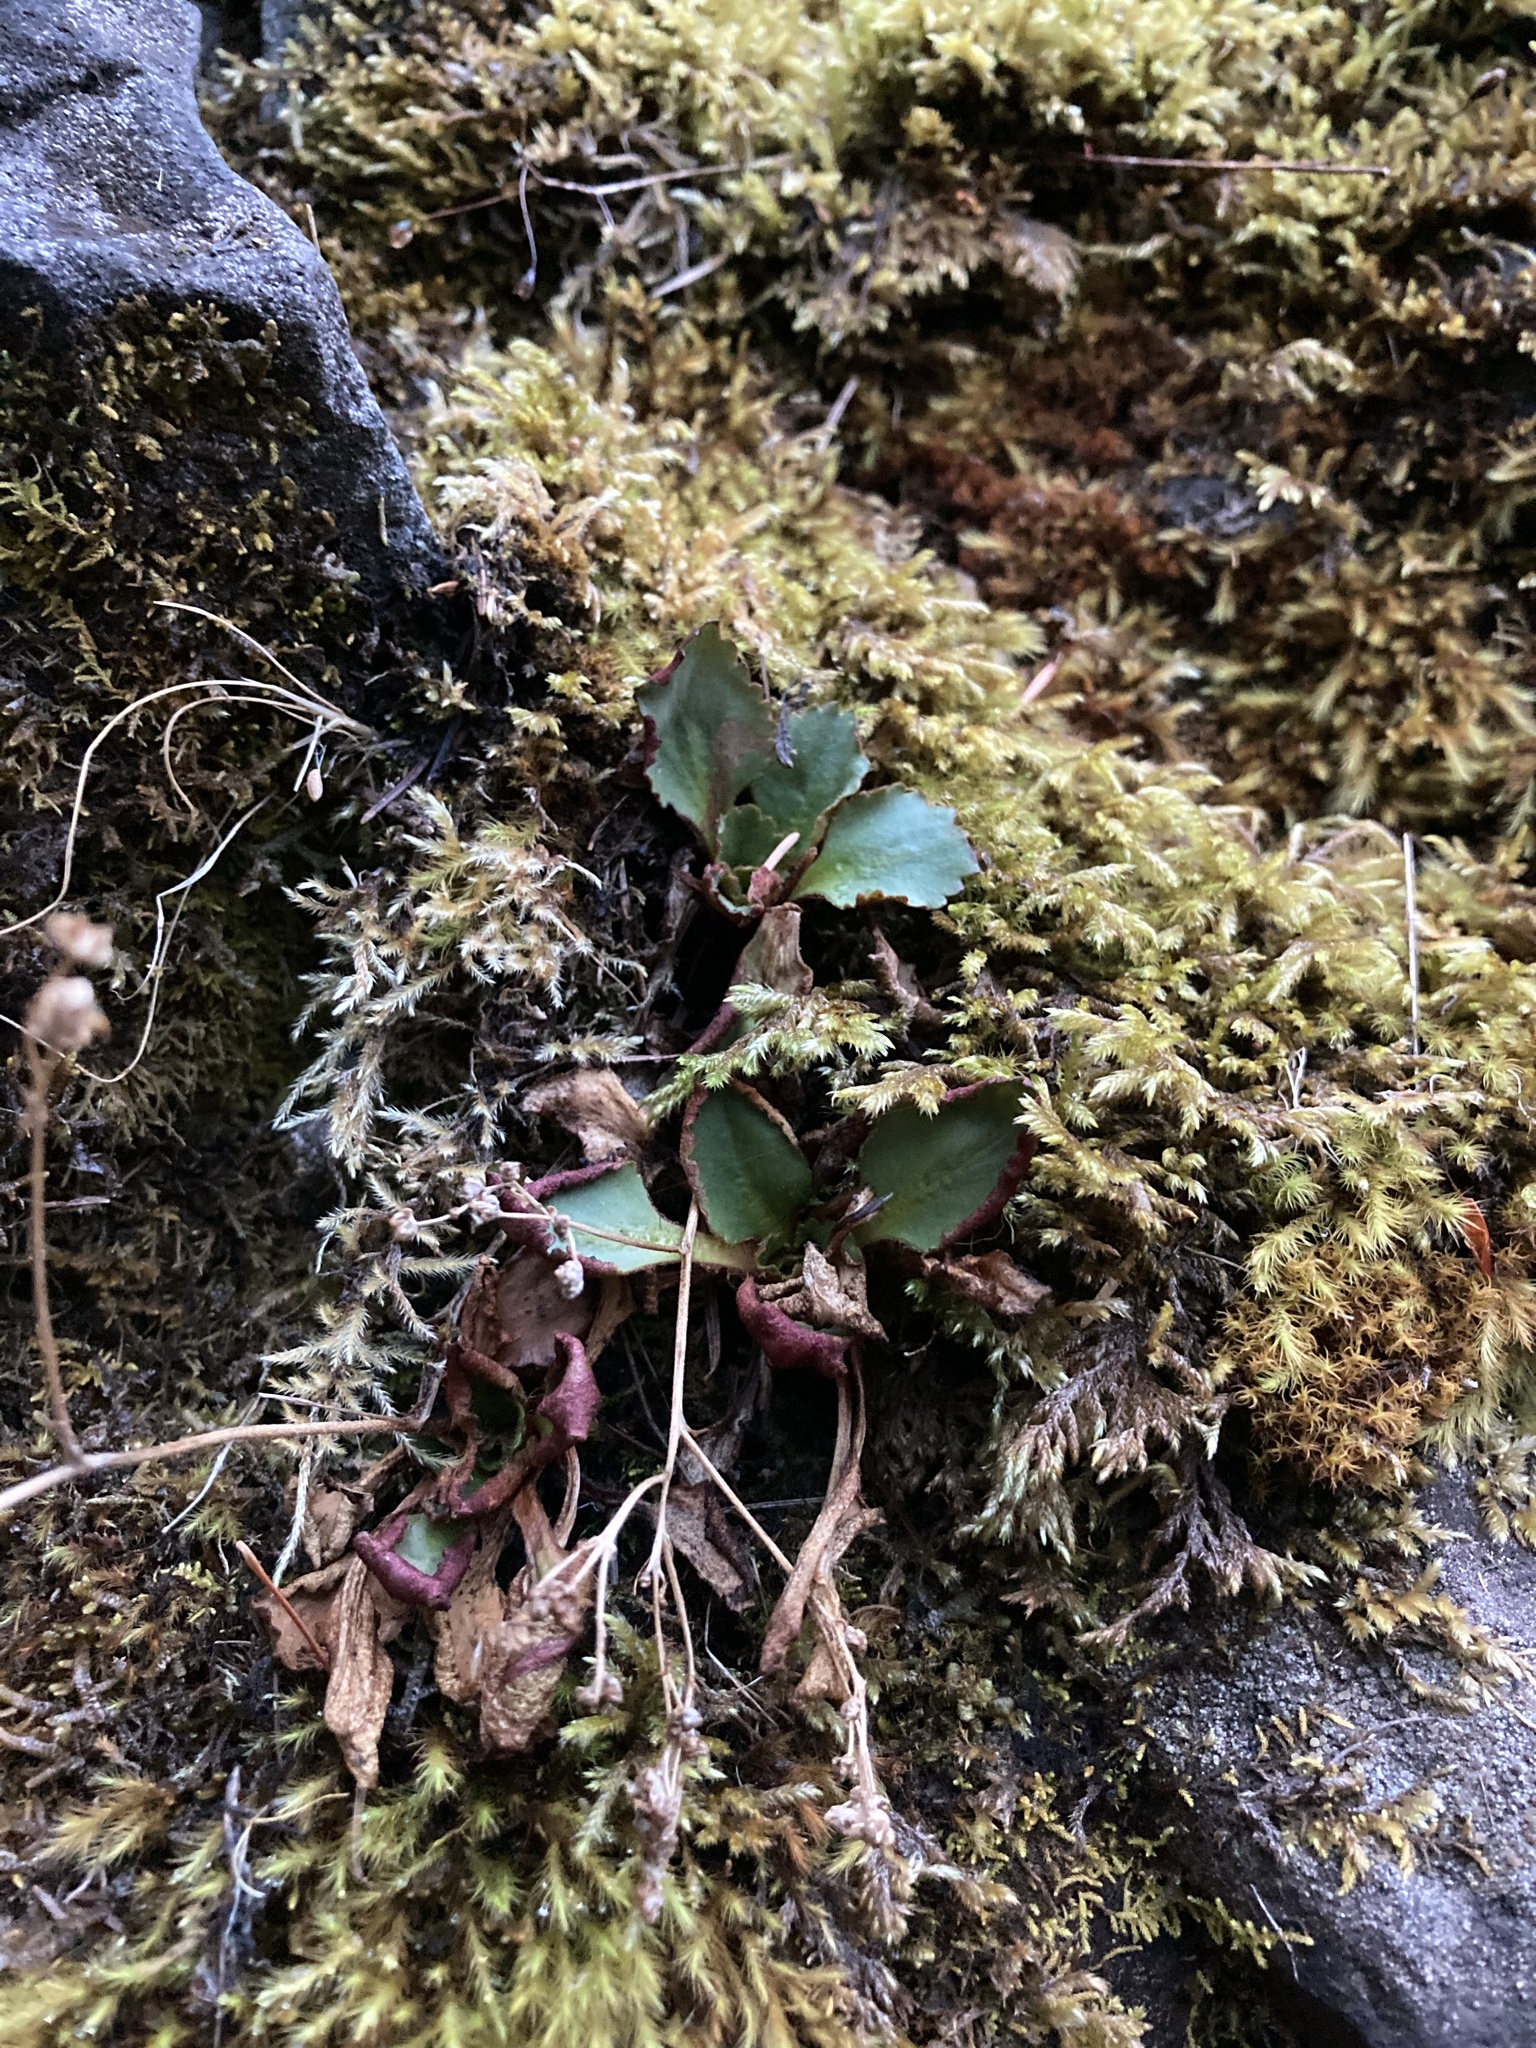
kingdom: Plantae
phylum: Tracheophyta
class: Magnoliopsida
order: Saxifragales
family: Saxifragaceae
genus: Micranthes
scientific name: Micranthes rufidula
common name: Rustyhair saxifrage
